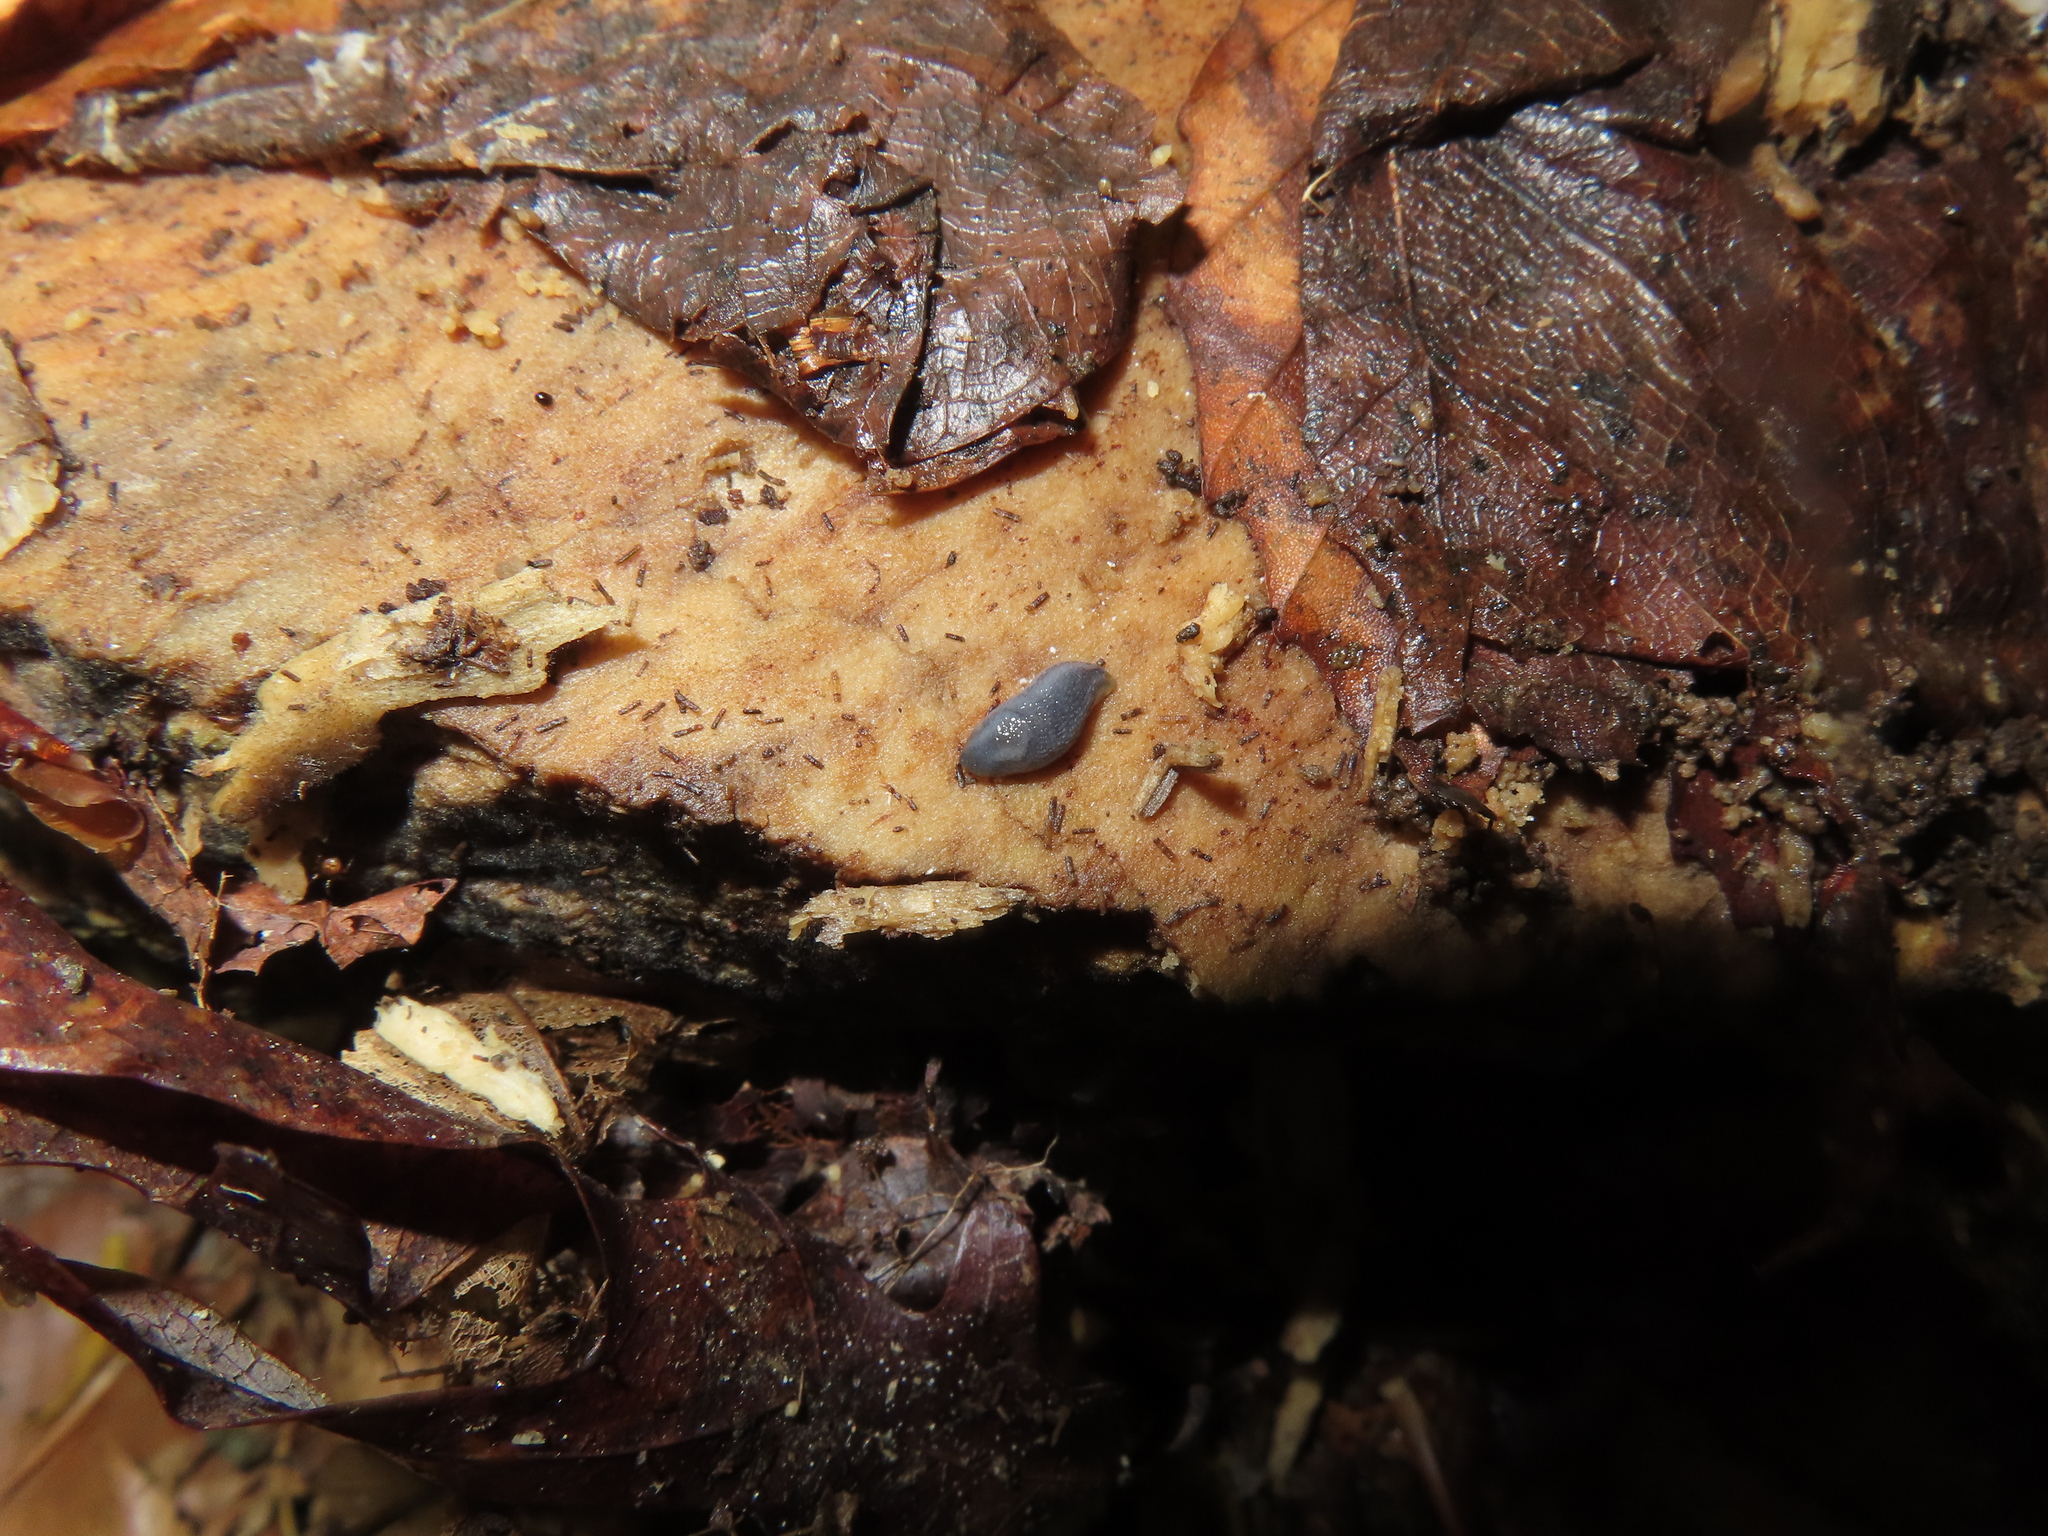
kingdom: Animalia
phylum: Mollusca
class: Gastropoda
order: Stylommatophora
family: Arionidae
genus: Arion
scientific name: Arion intermedius
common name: Hedgehog slug
